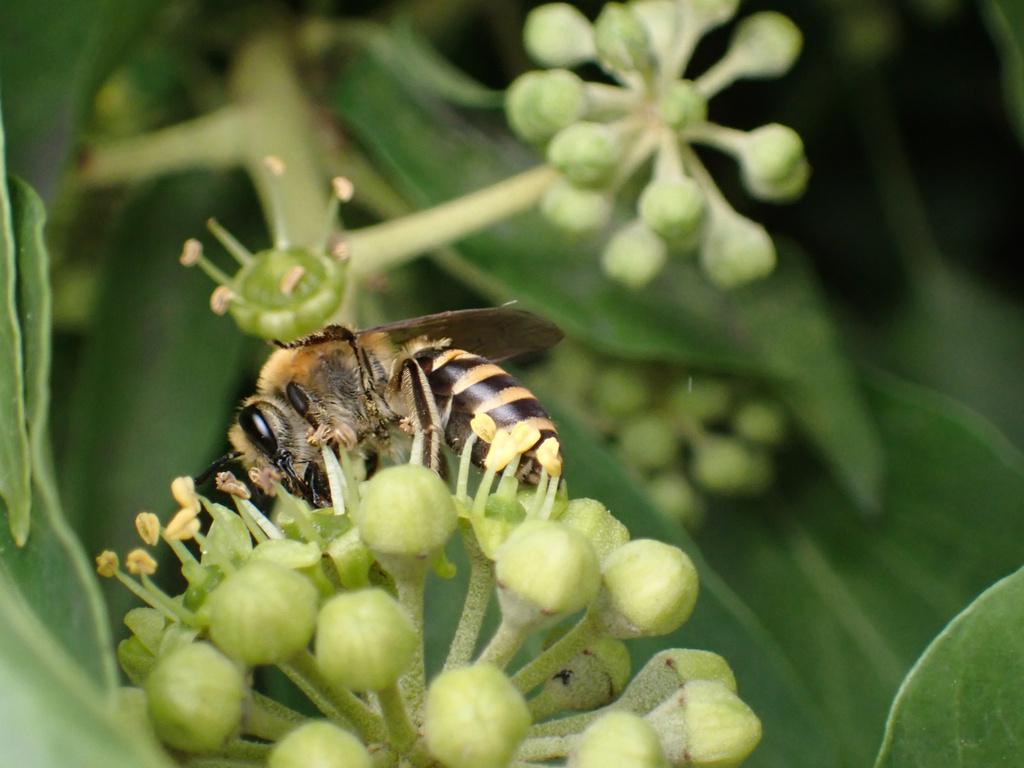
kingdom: Animalia
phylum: Arthropoda
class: Insecta
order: Hymenoptera
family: Colletidae
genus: Colletes
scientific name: Colletes hederae
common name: Ivy bee
